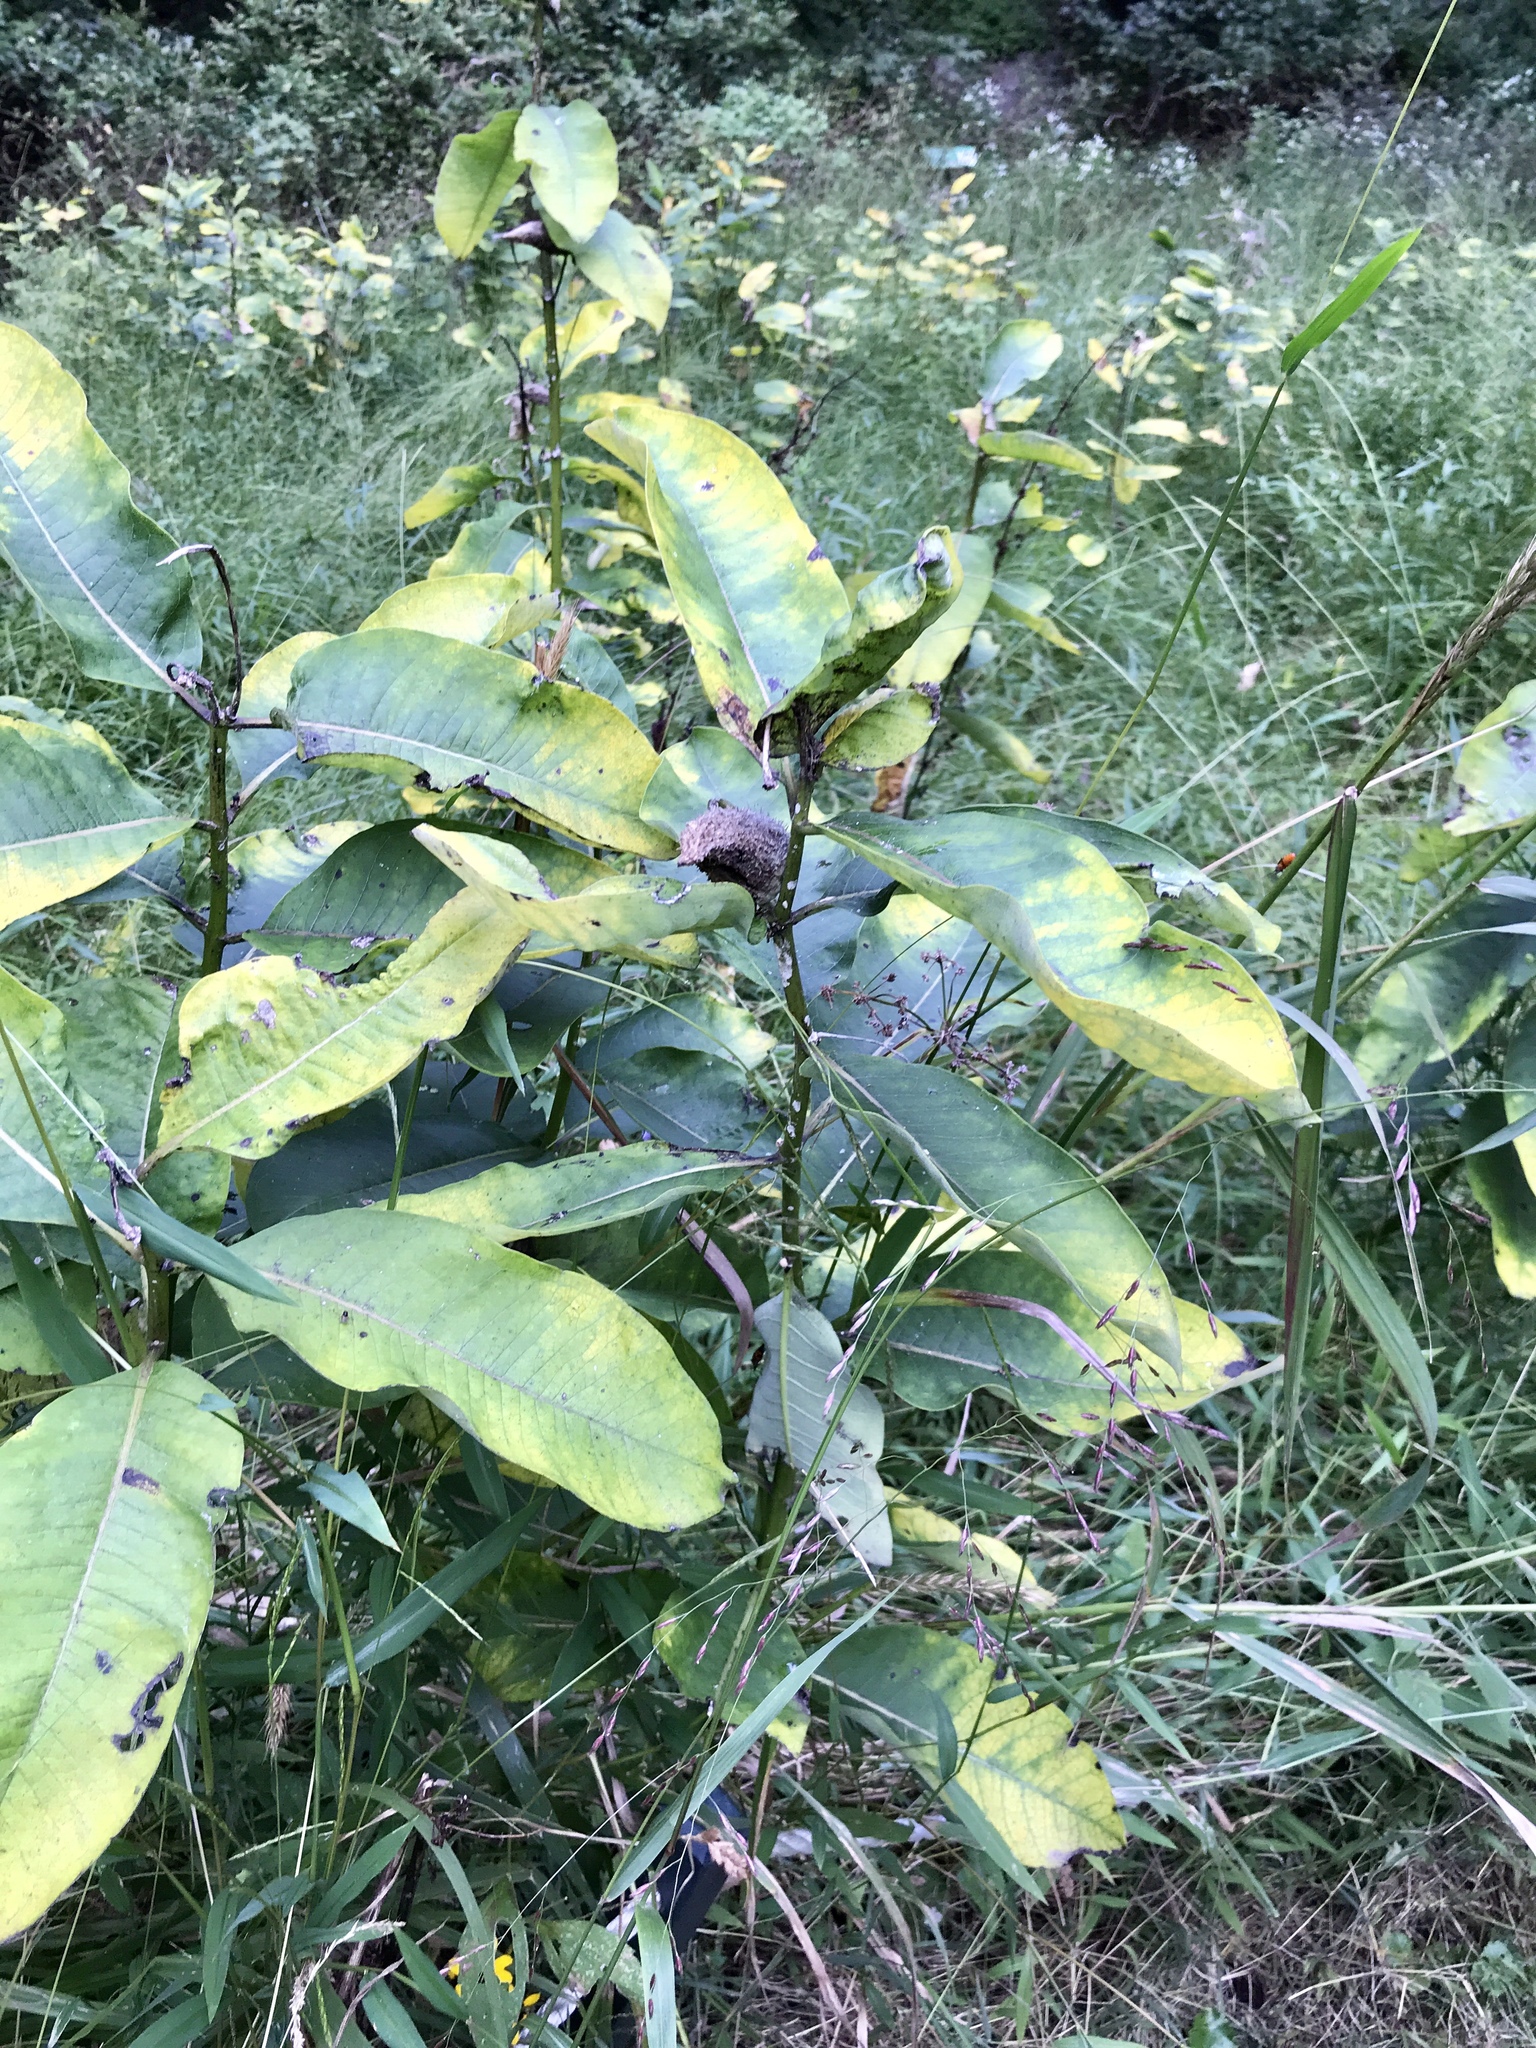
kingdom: Plantae
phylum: Tracheophyta
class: Magnoliopsida
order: Gentianales
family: Apocynaceae
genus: Asclepias
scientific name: Asclepias syriaca
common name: Common milkweed
